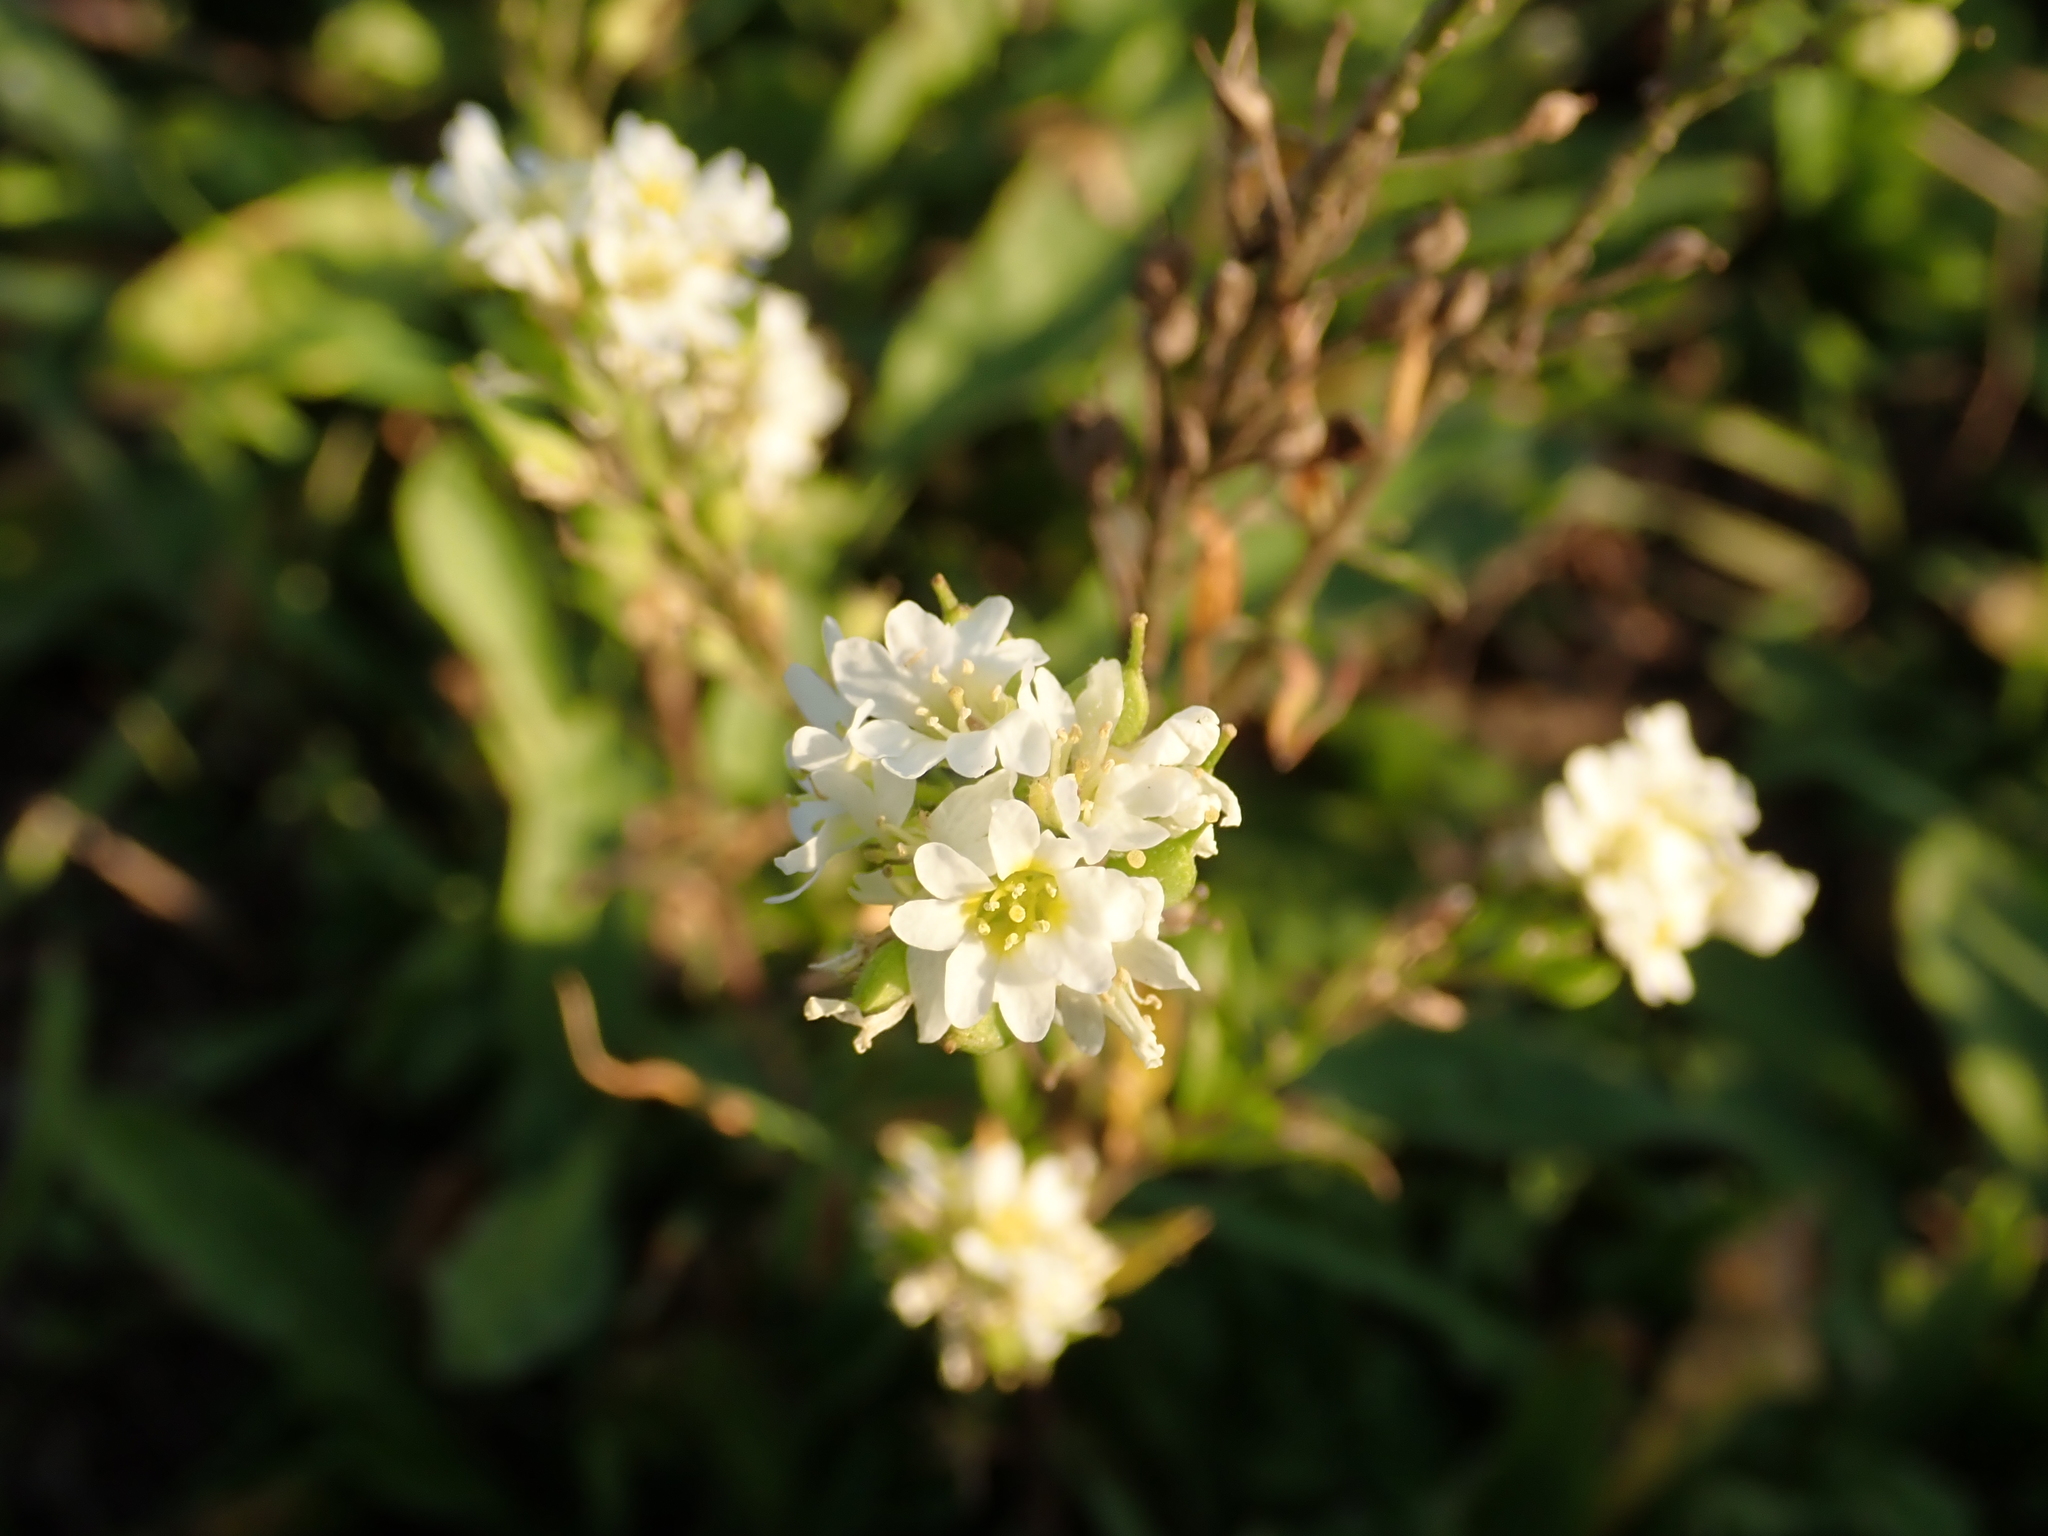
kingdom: Plantae
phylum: Tracheophyta
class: Magnoliopsida
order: Brassicales
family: Brassicaceae
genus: Berteroa
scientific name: Berteroa incana
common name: Hoary alison
